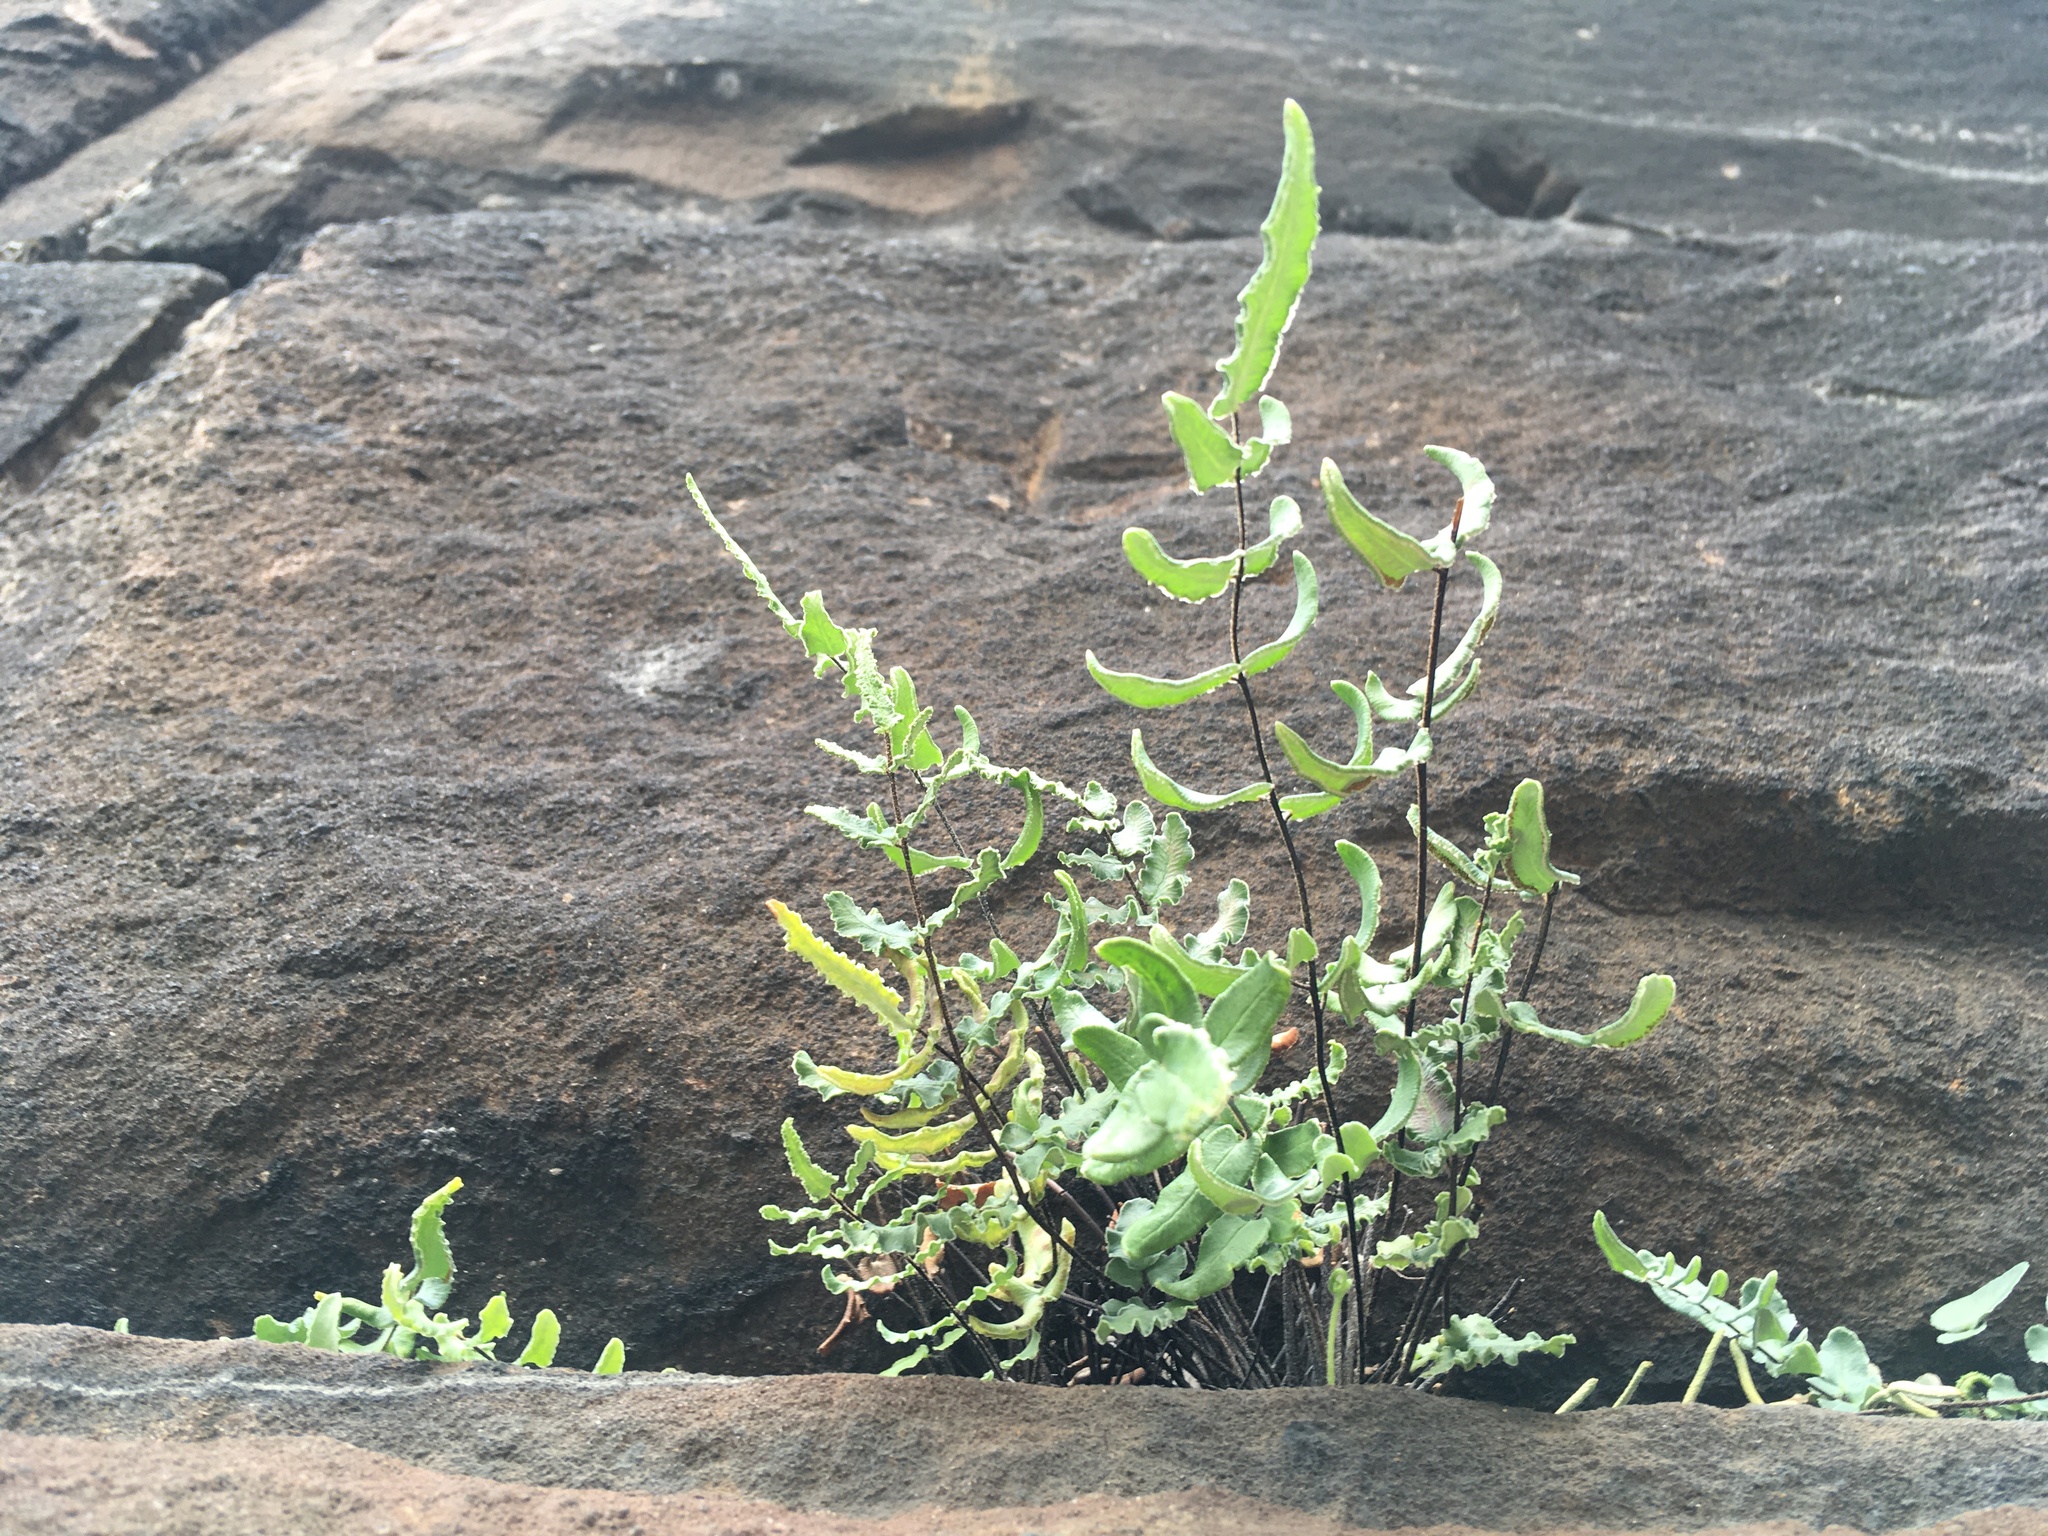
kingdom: Plantae
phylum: Tracheophyta
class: Polypodiopsida
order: Polypodiales
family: Pteridaceae
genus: Pellaea
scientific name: Pellaea atropurpurea
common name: Hairy cliffbrake
